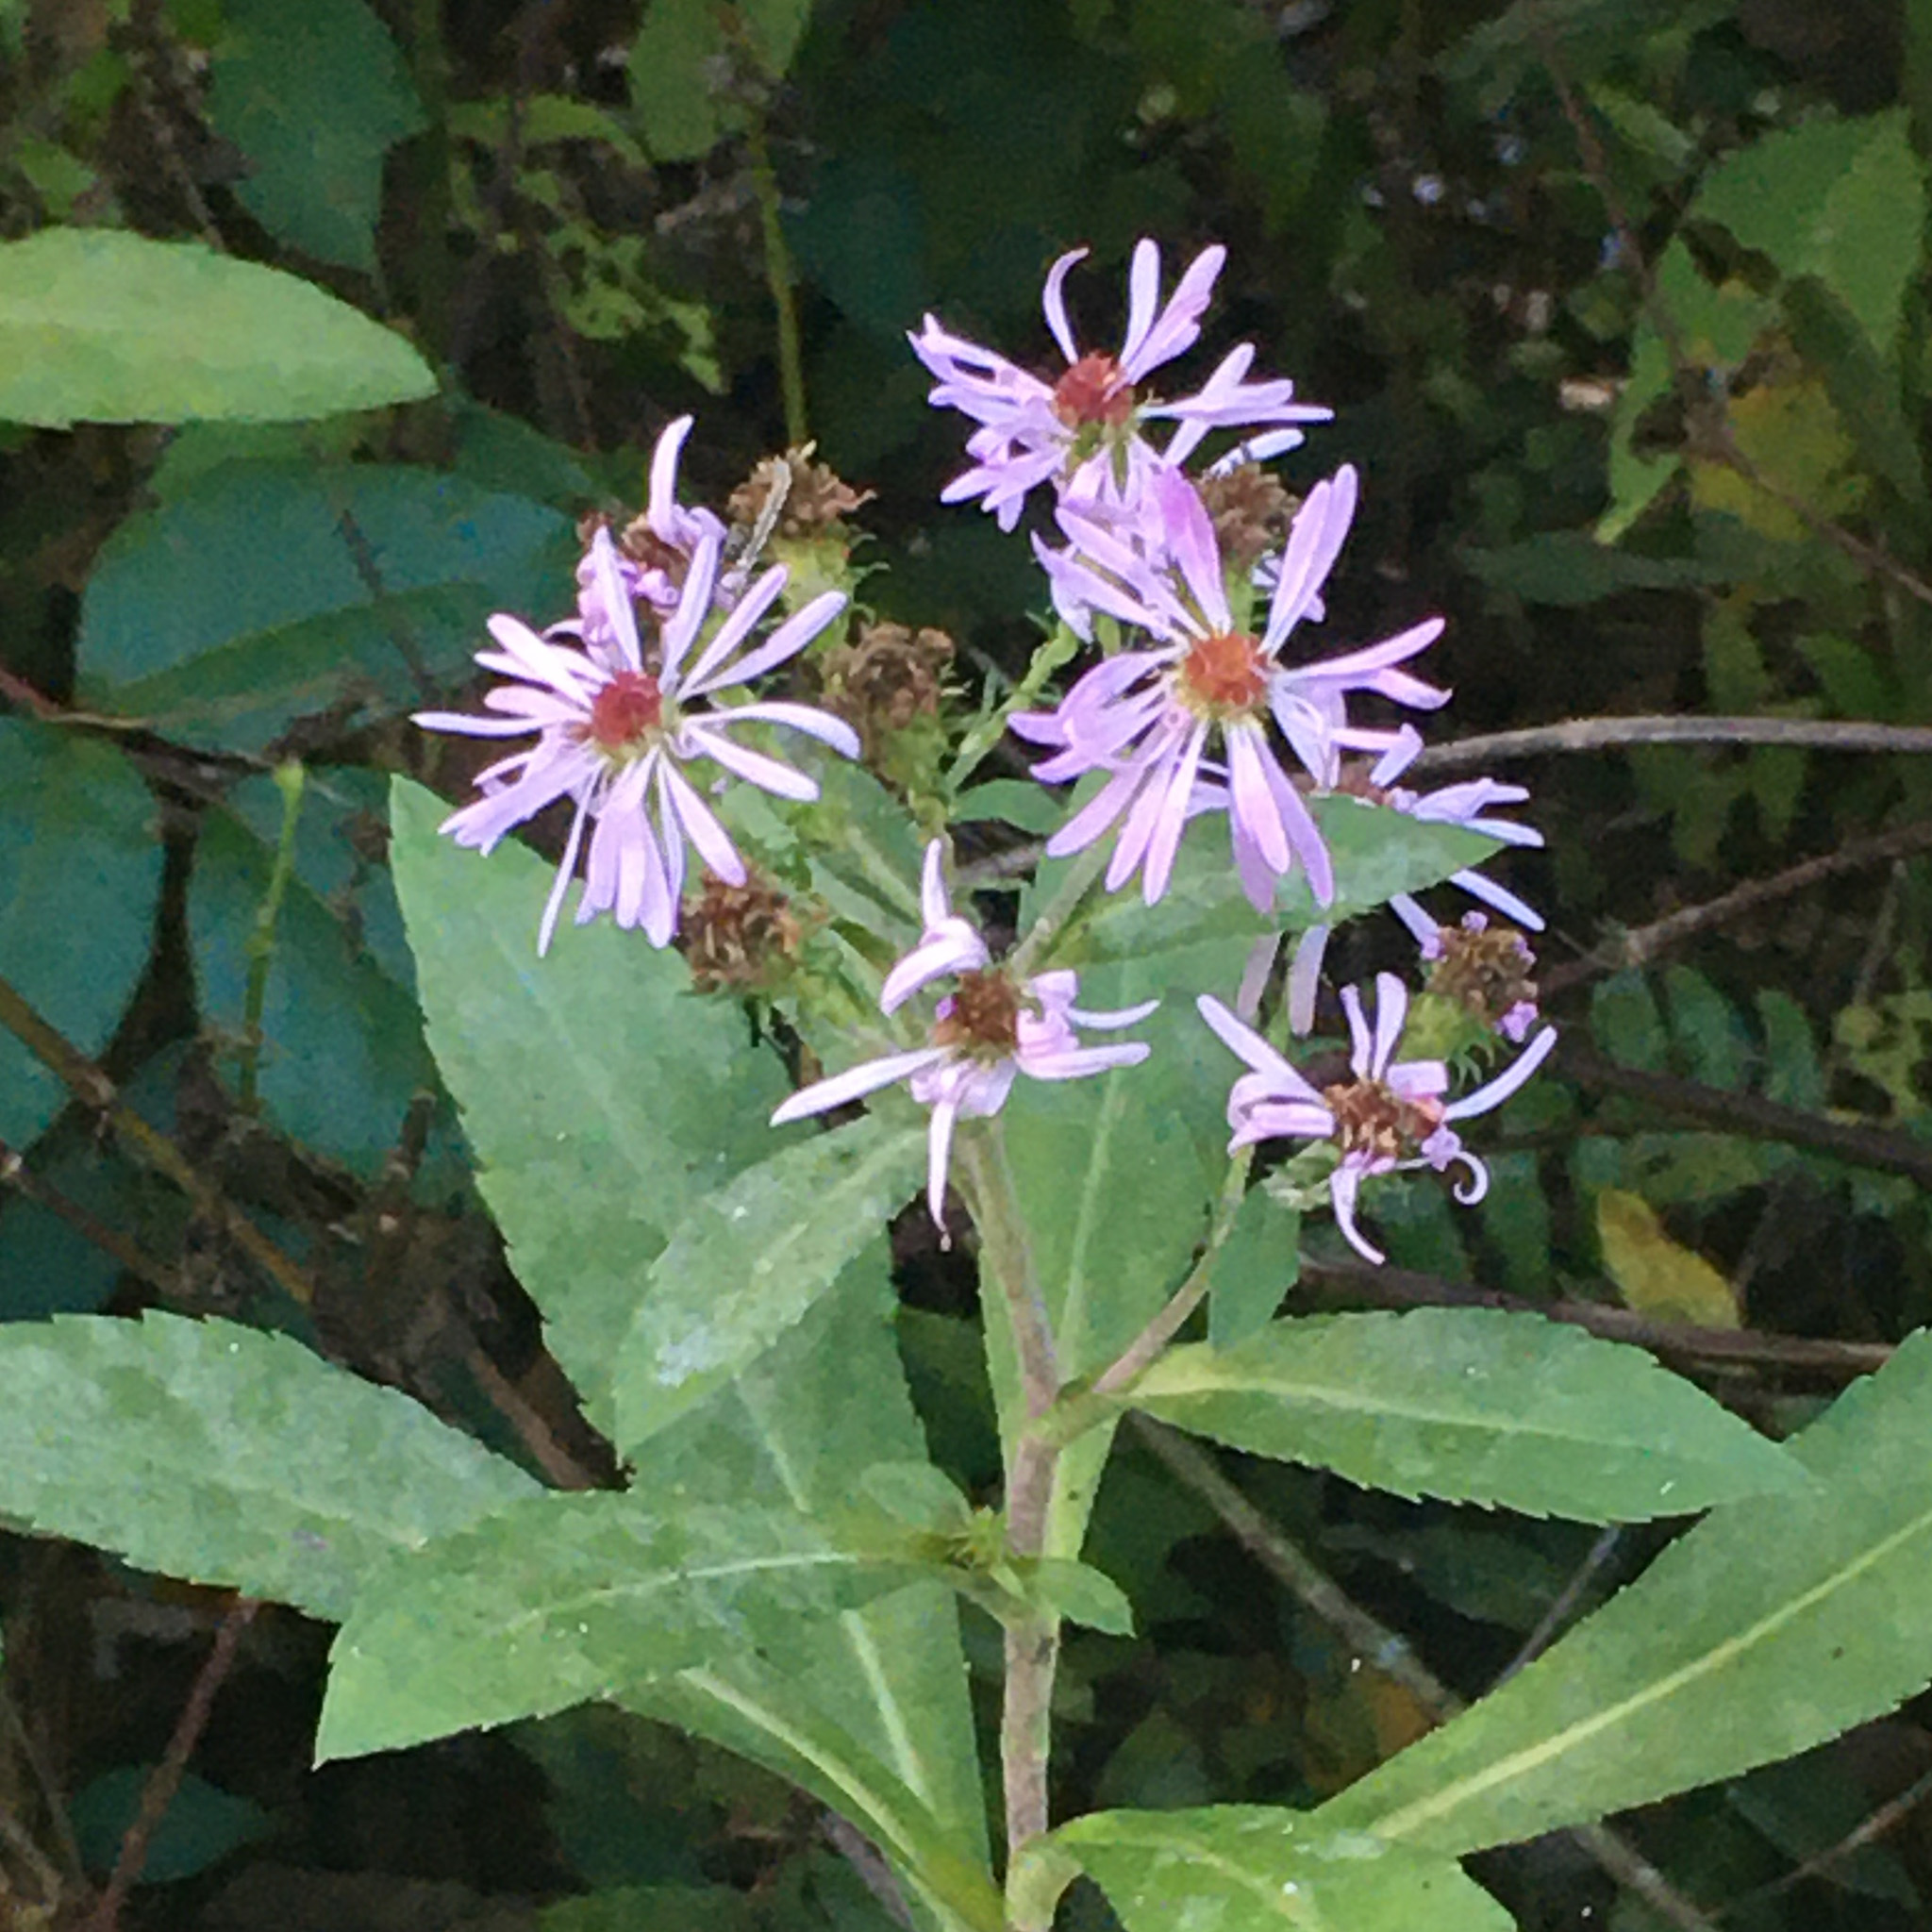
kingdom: Plantae
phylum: Tracheophyta
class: Magnoliopsida
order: Asterales
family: Asteraceae
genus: Symphyotrichum
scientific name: Symphyotrichum elliottii
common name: Southern swamp aster
